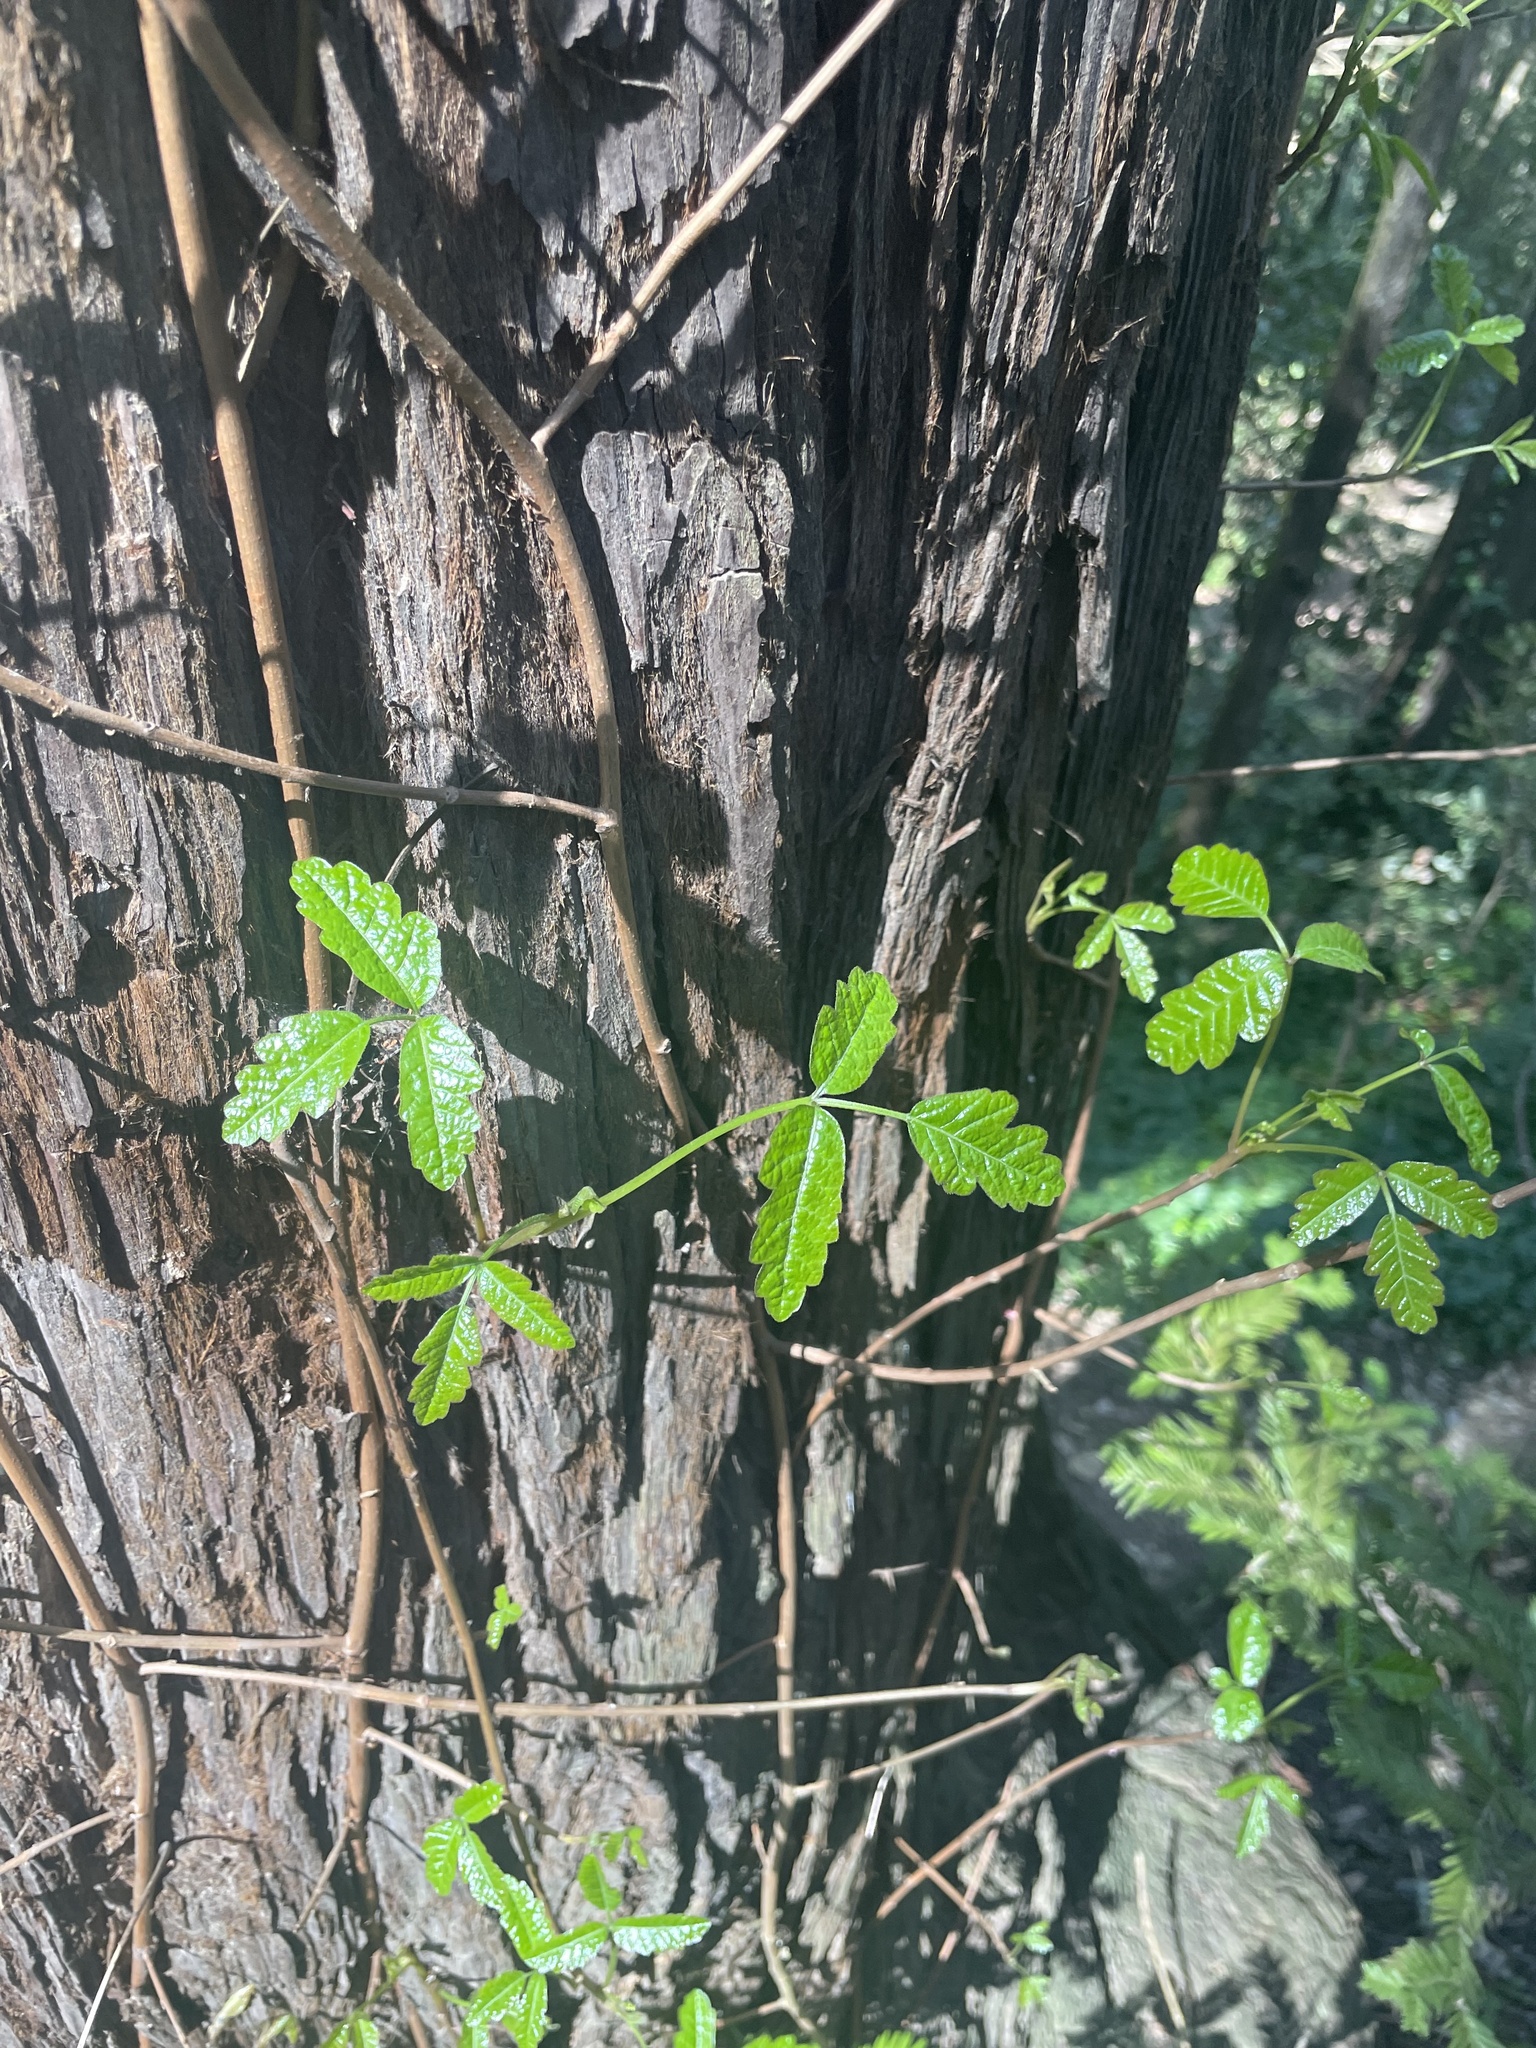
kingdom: Plantae
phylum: Tracheophyta
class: Magnoliopsida
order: Sapindales
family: Anacardiaceae
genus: Toxicodendron
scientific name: Toxicodendron diversilobum
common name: Pacific poison-oak
